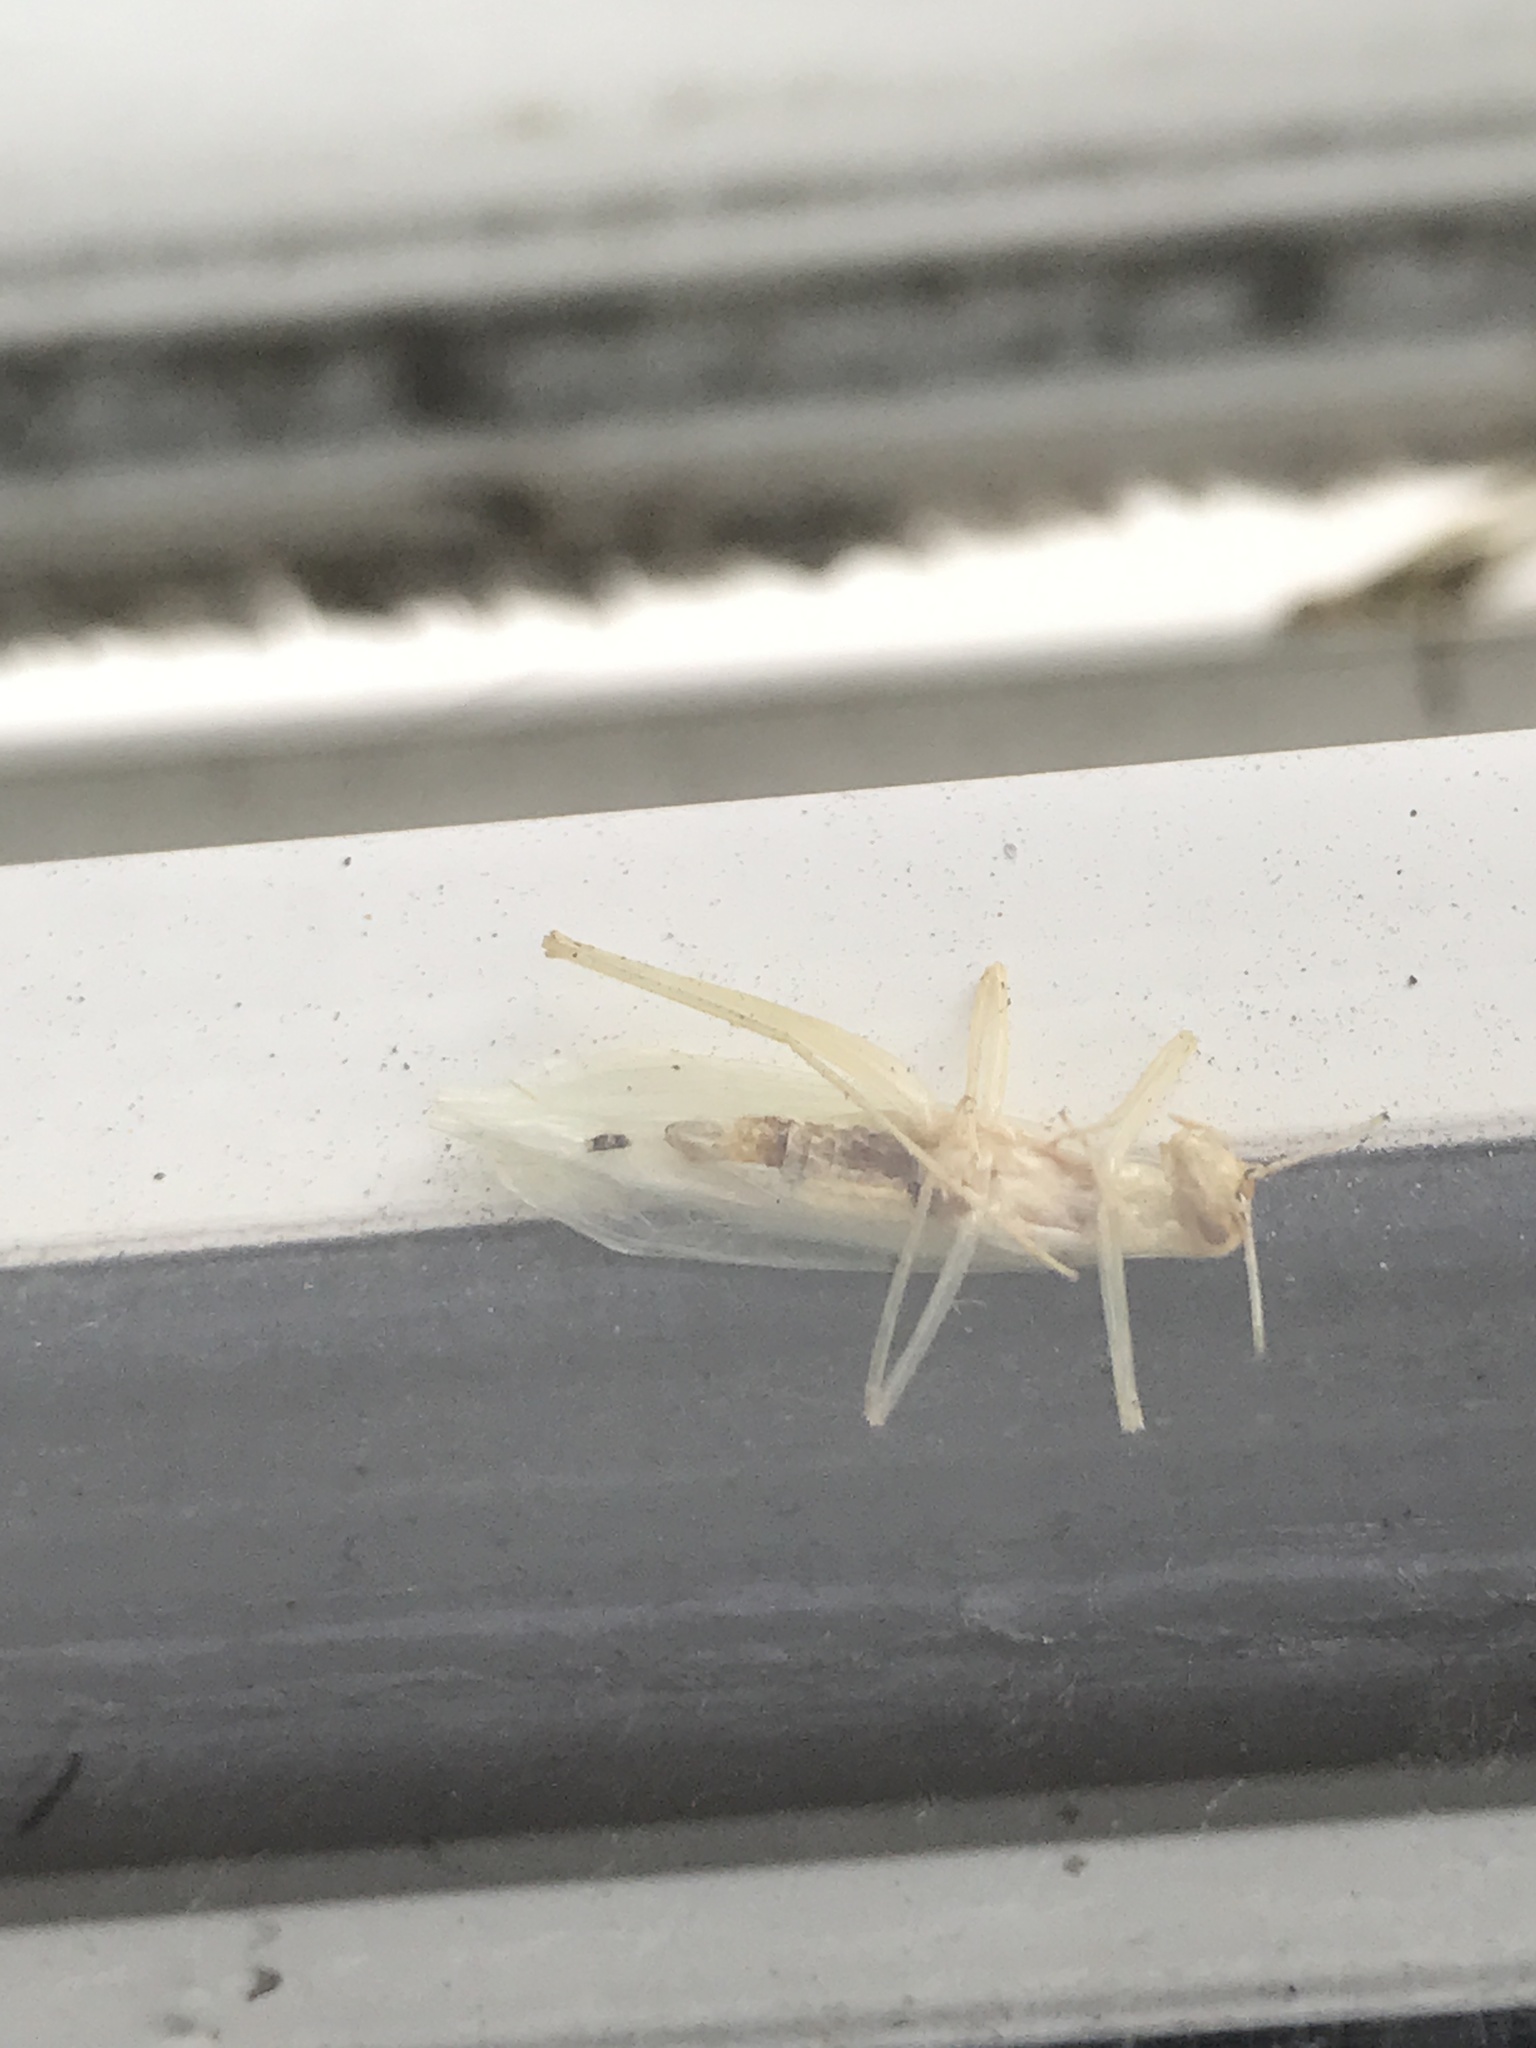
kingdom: Animalia
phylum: Arthropoda
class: Insecta
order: Orthoptera
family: Gryllidae
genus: Oecanthus
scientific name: Oecanthus niveus
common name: Narrow-winged tree cricket
